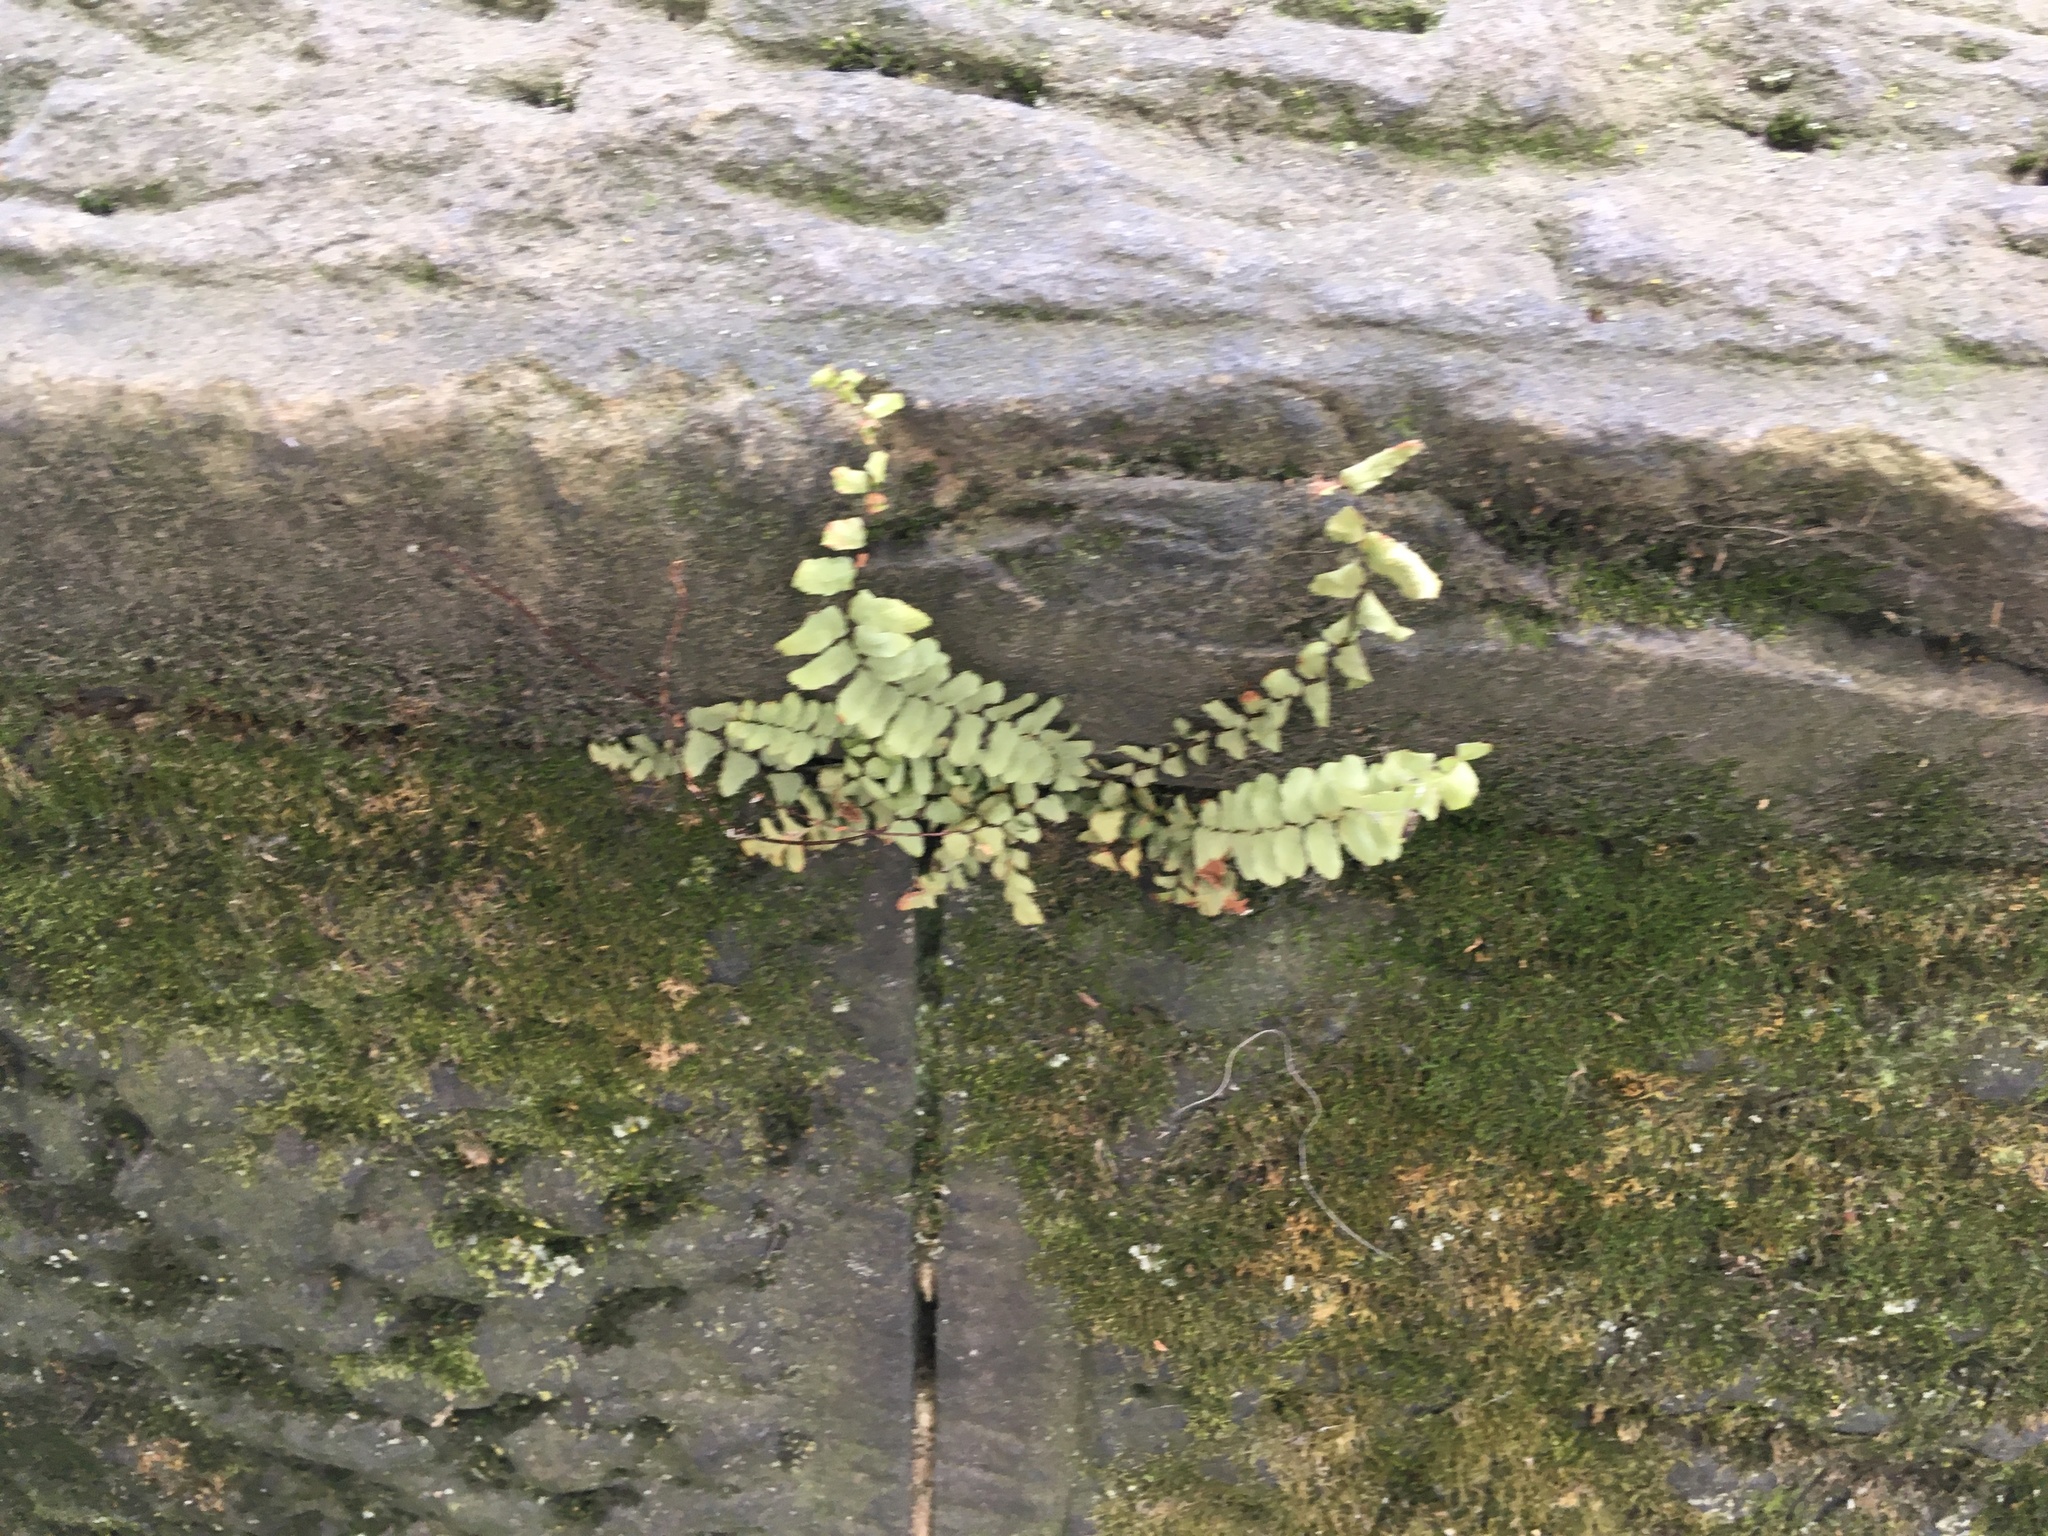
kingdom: Plantae
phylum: Tracheophyta
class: Polypodiopsida
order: Polypodiales
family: Aspleniaceae
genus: Asplenium
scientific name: Asplenium platyneuron
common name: Ebony spleenwort
